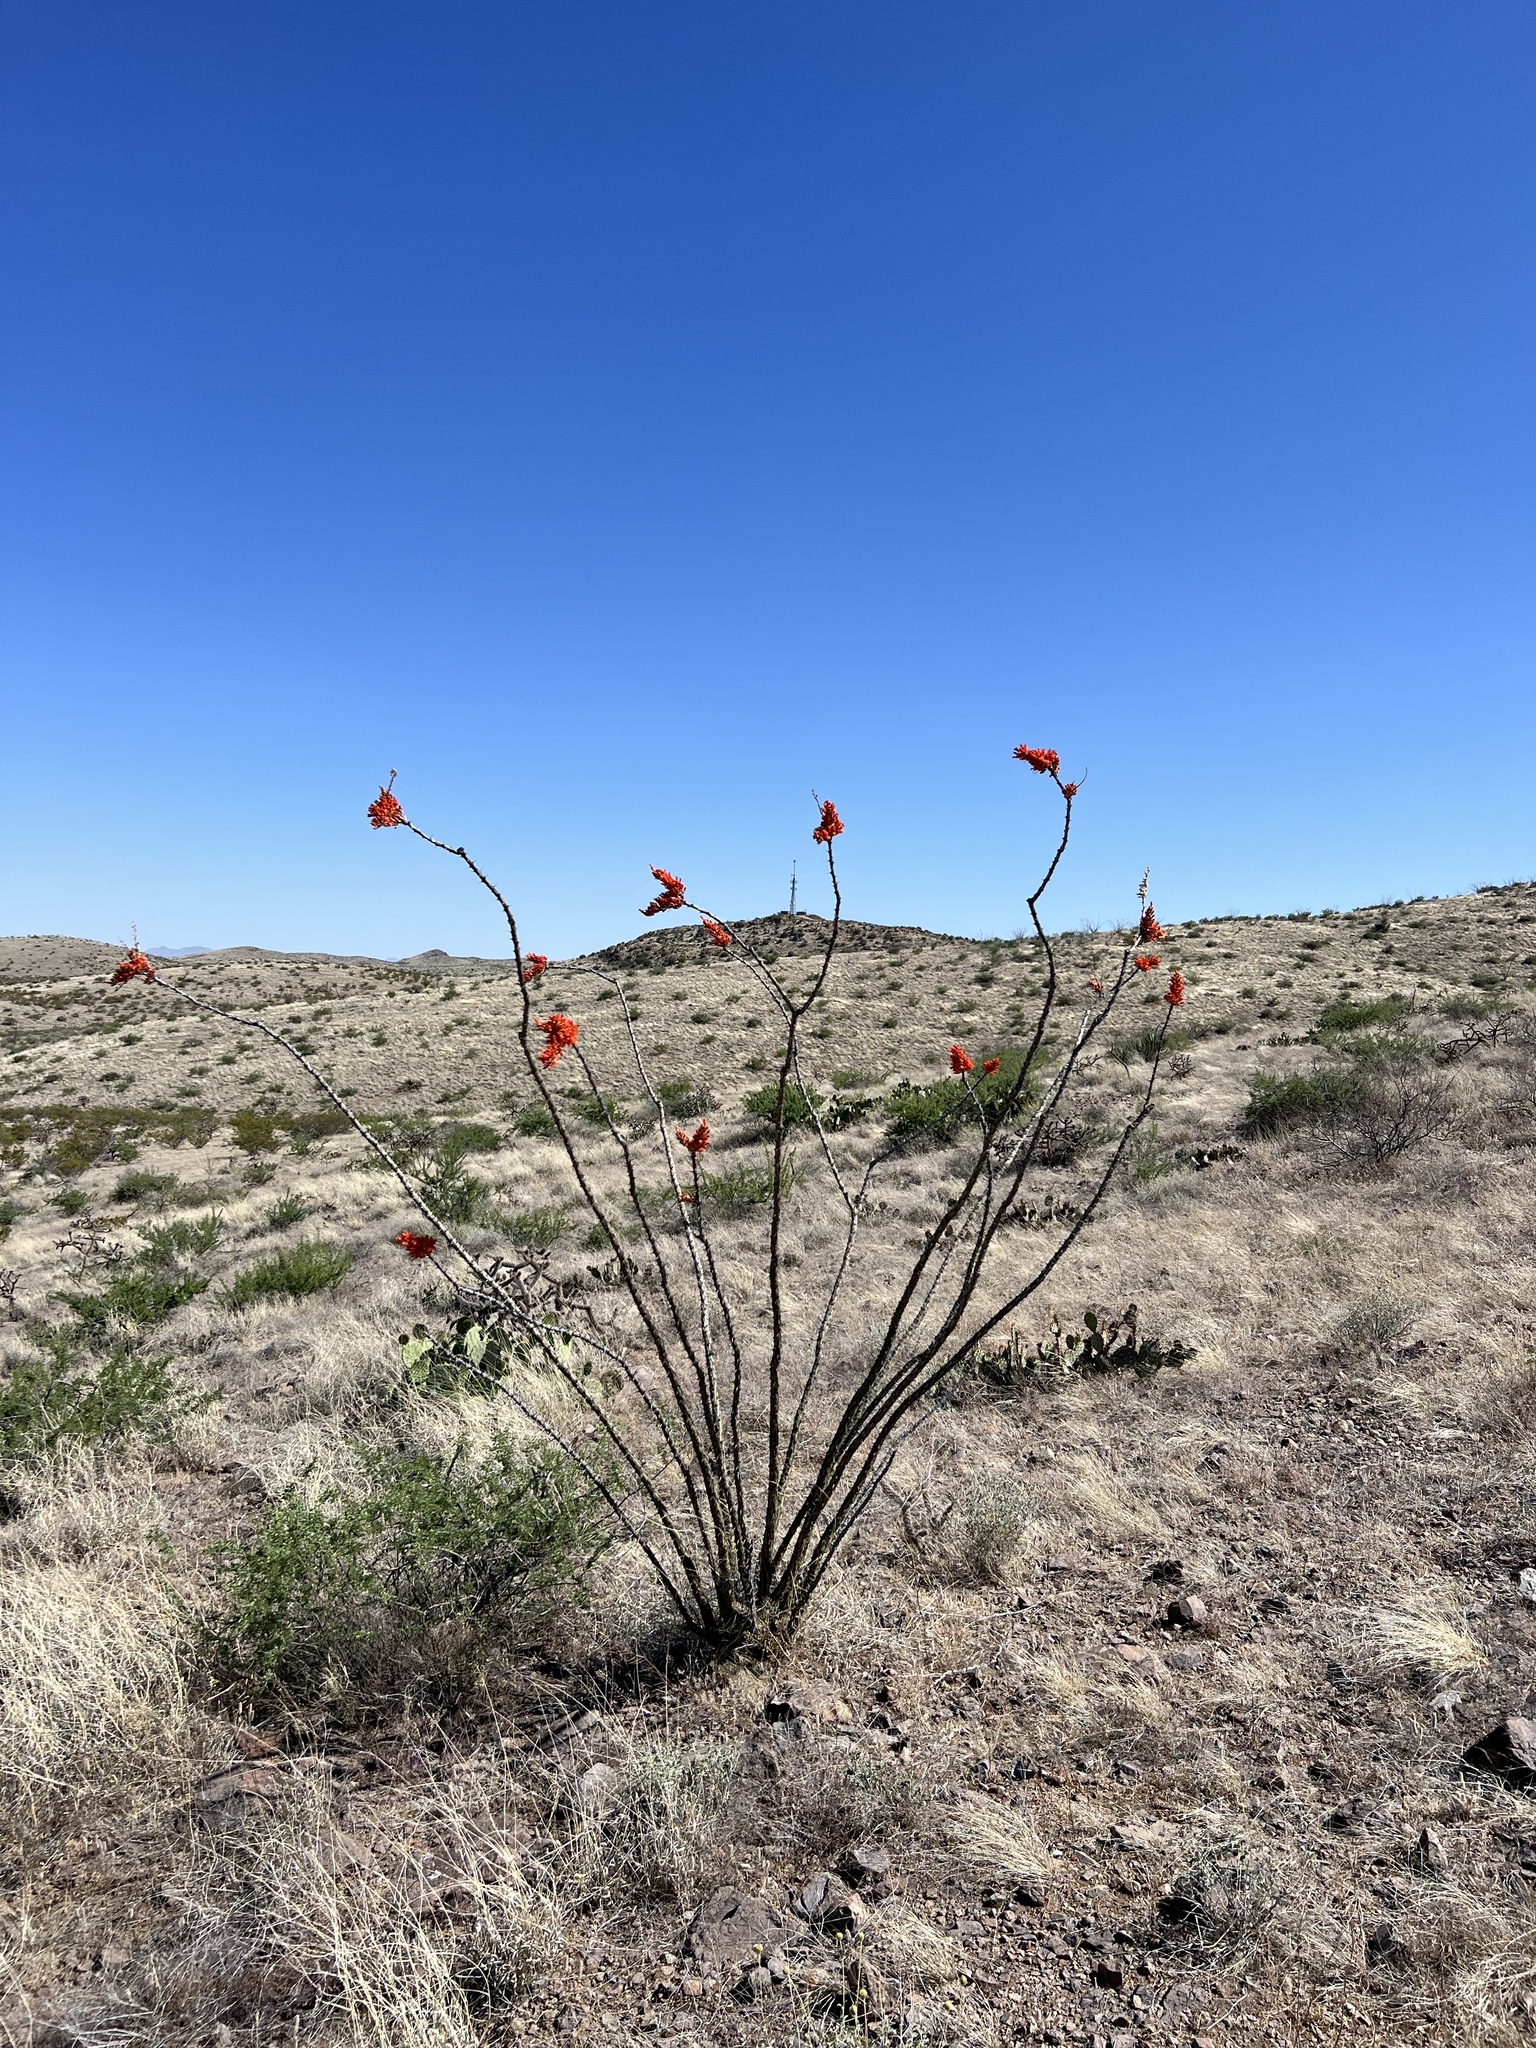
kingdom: Plantae
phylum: Tracheophyta
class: Magnoliopsida
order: Ericales
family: Fouquieriaceae
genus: Fouquieria
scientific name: Fouquieria splendens
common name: Vine-cactus
